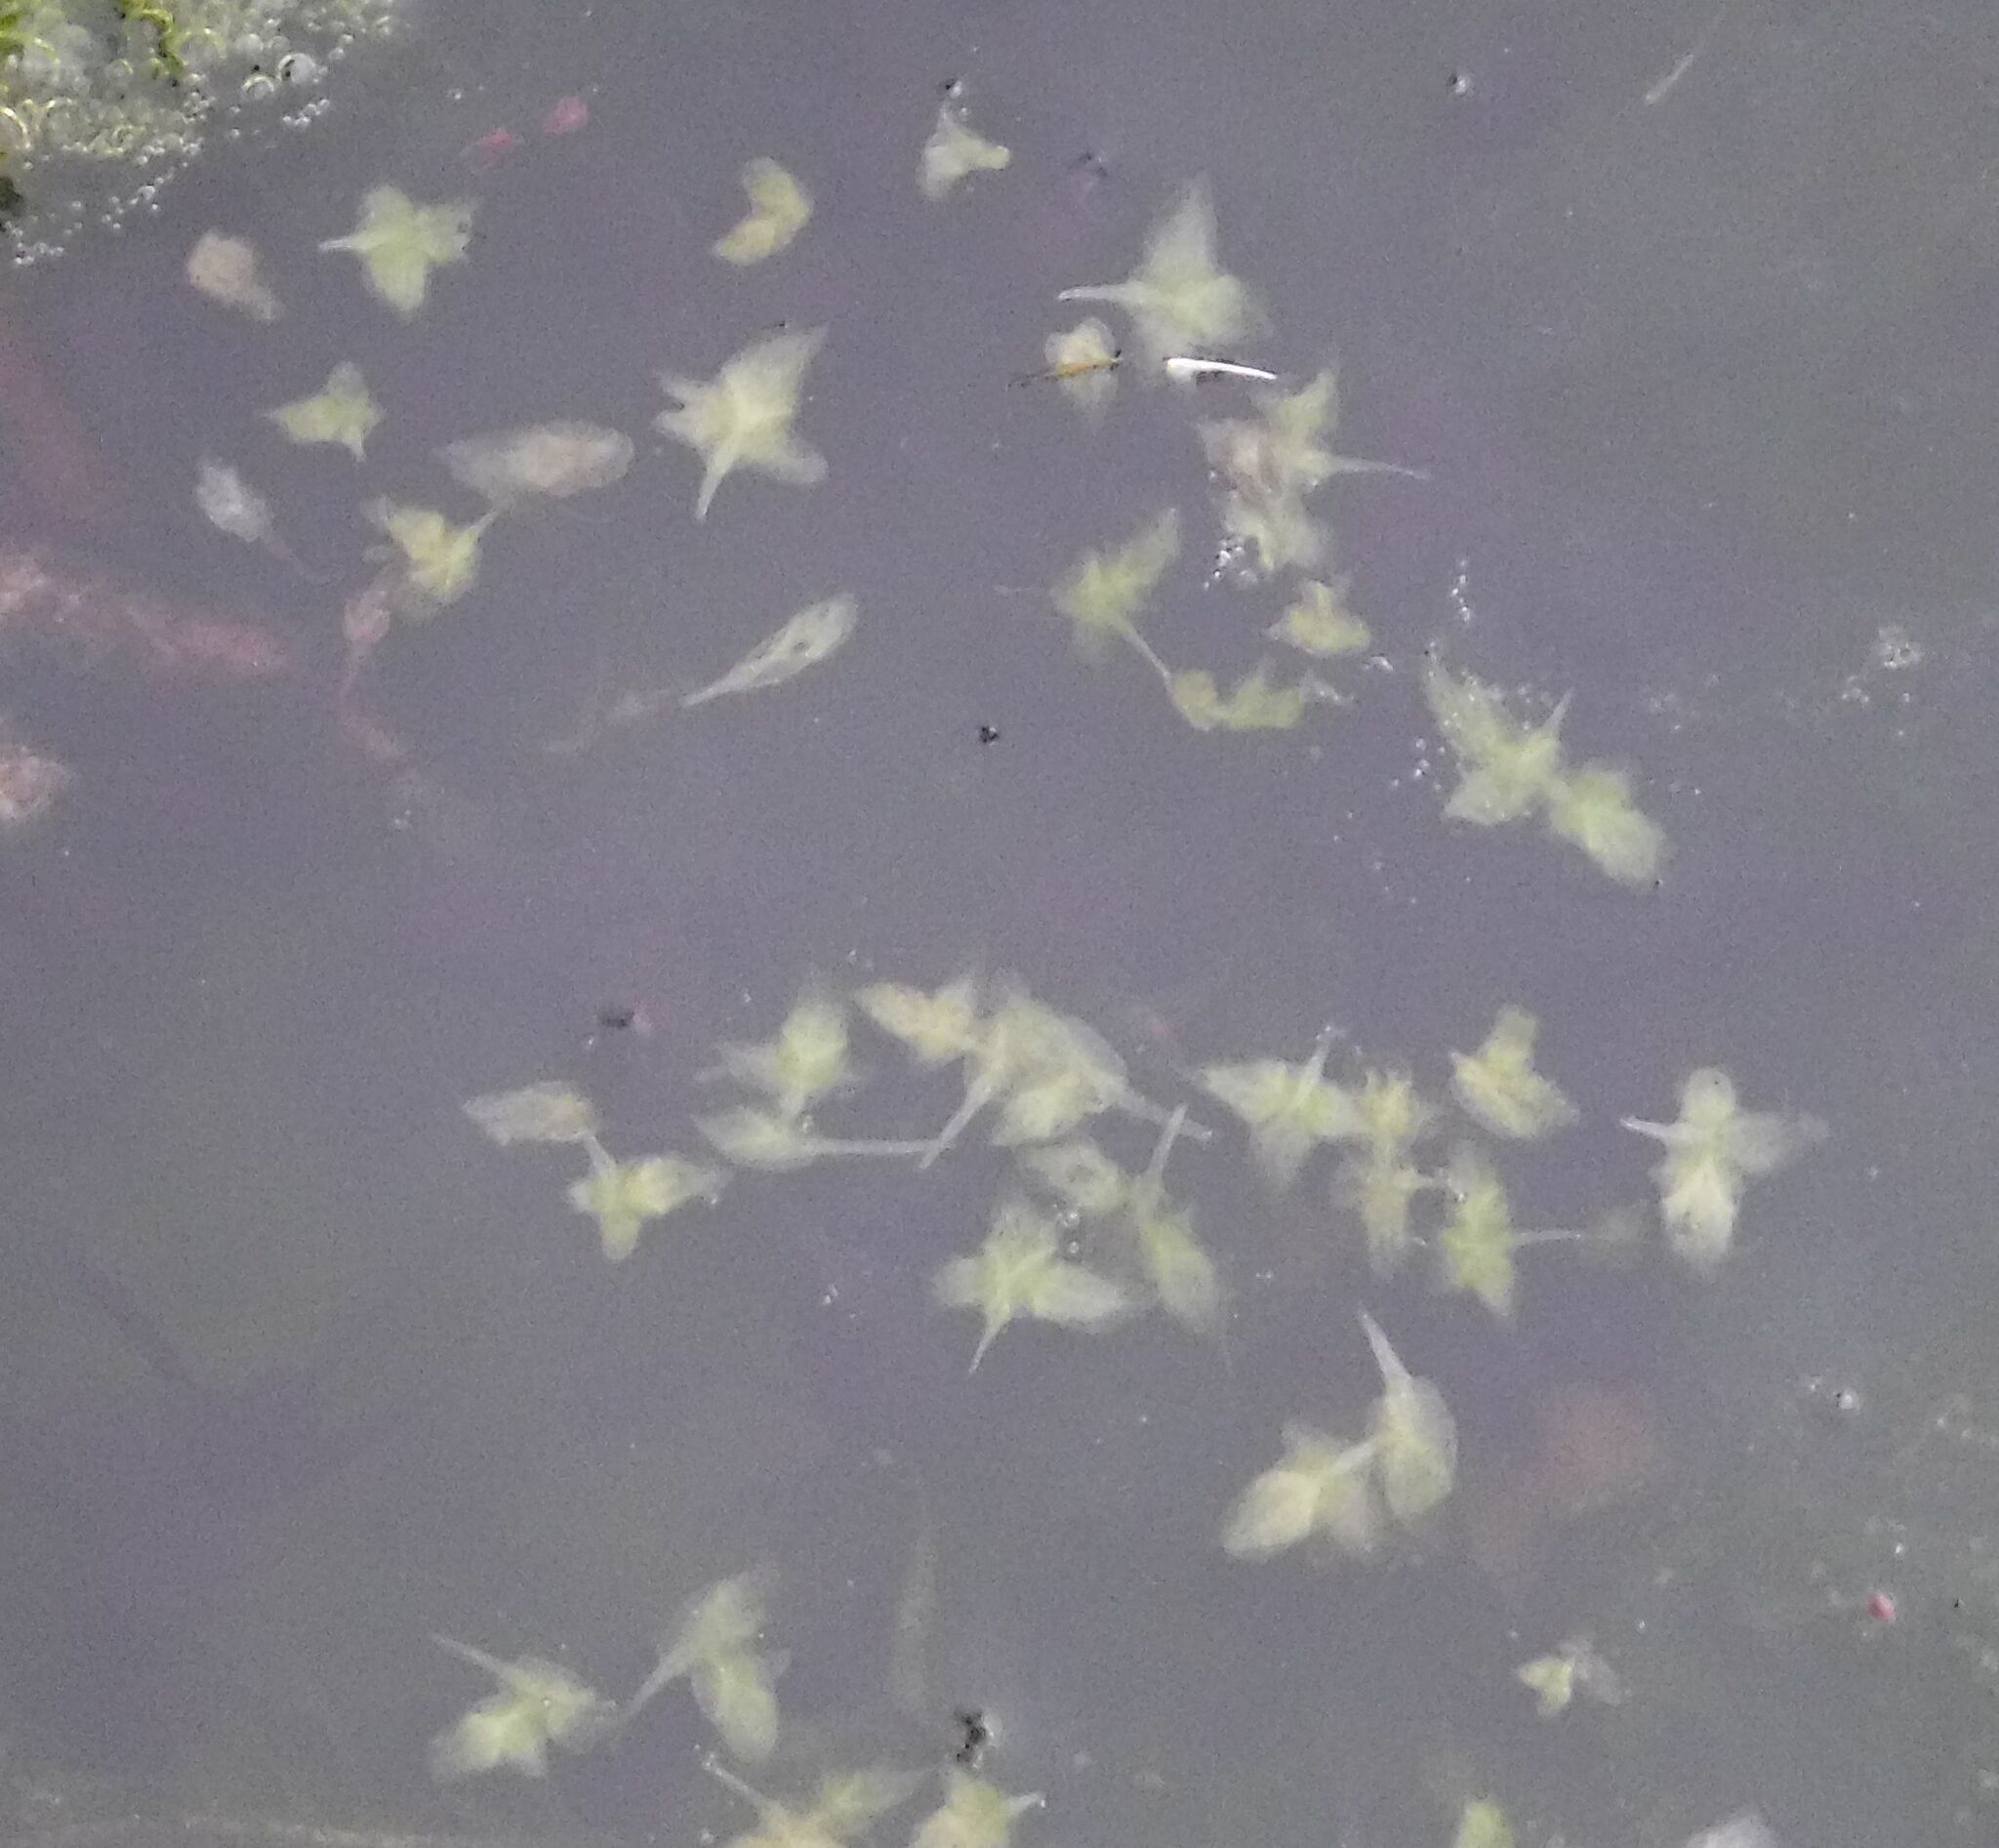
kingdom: Plantae
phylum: Tracheophyta
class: Liliopsida
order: Alismatales
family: Araceae
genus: Lemna
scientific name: Lemna trisulca
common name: Ivy-leaved duckweed
